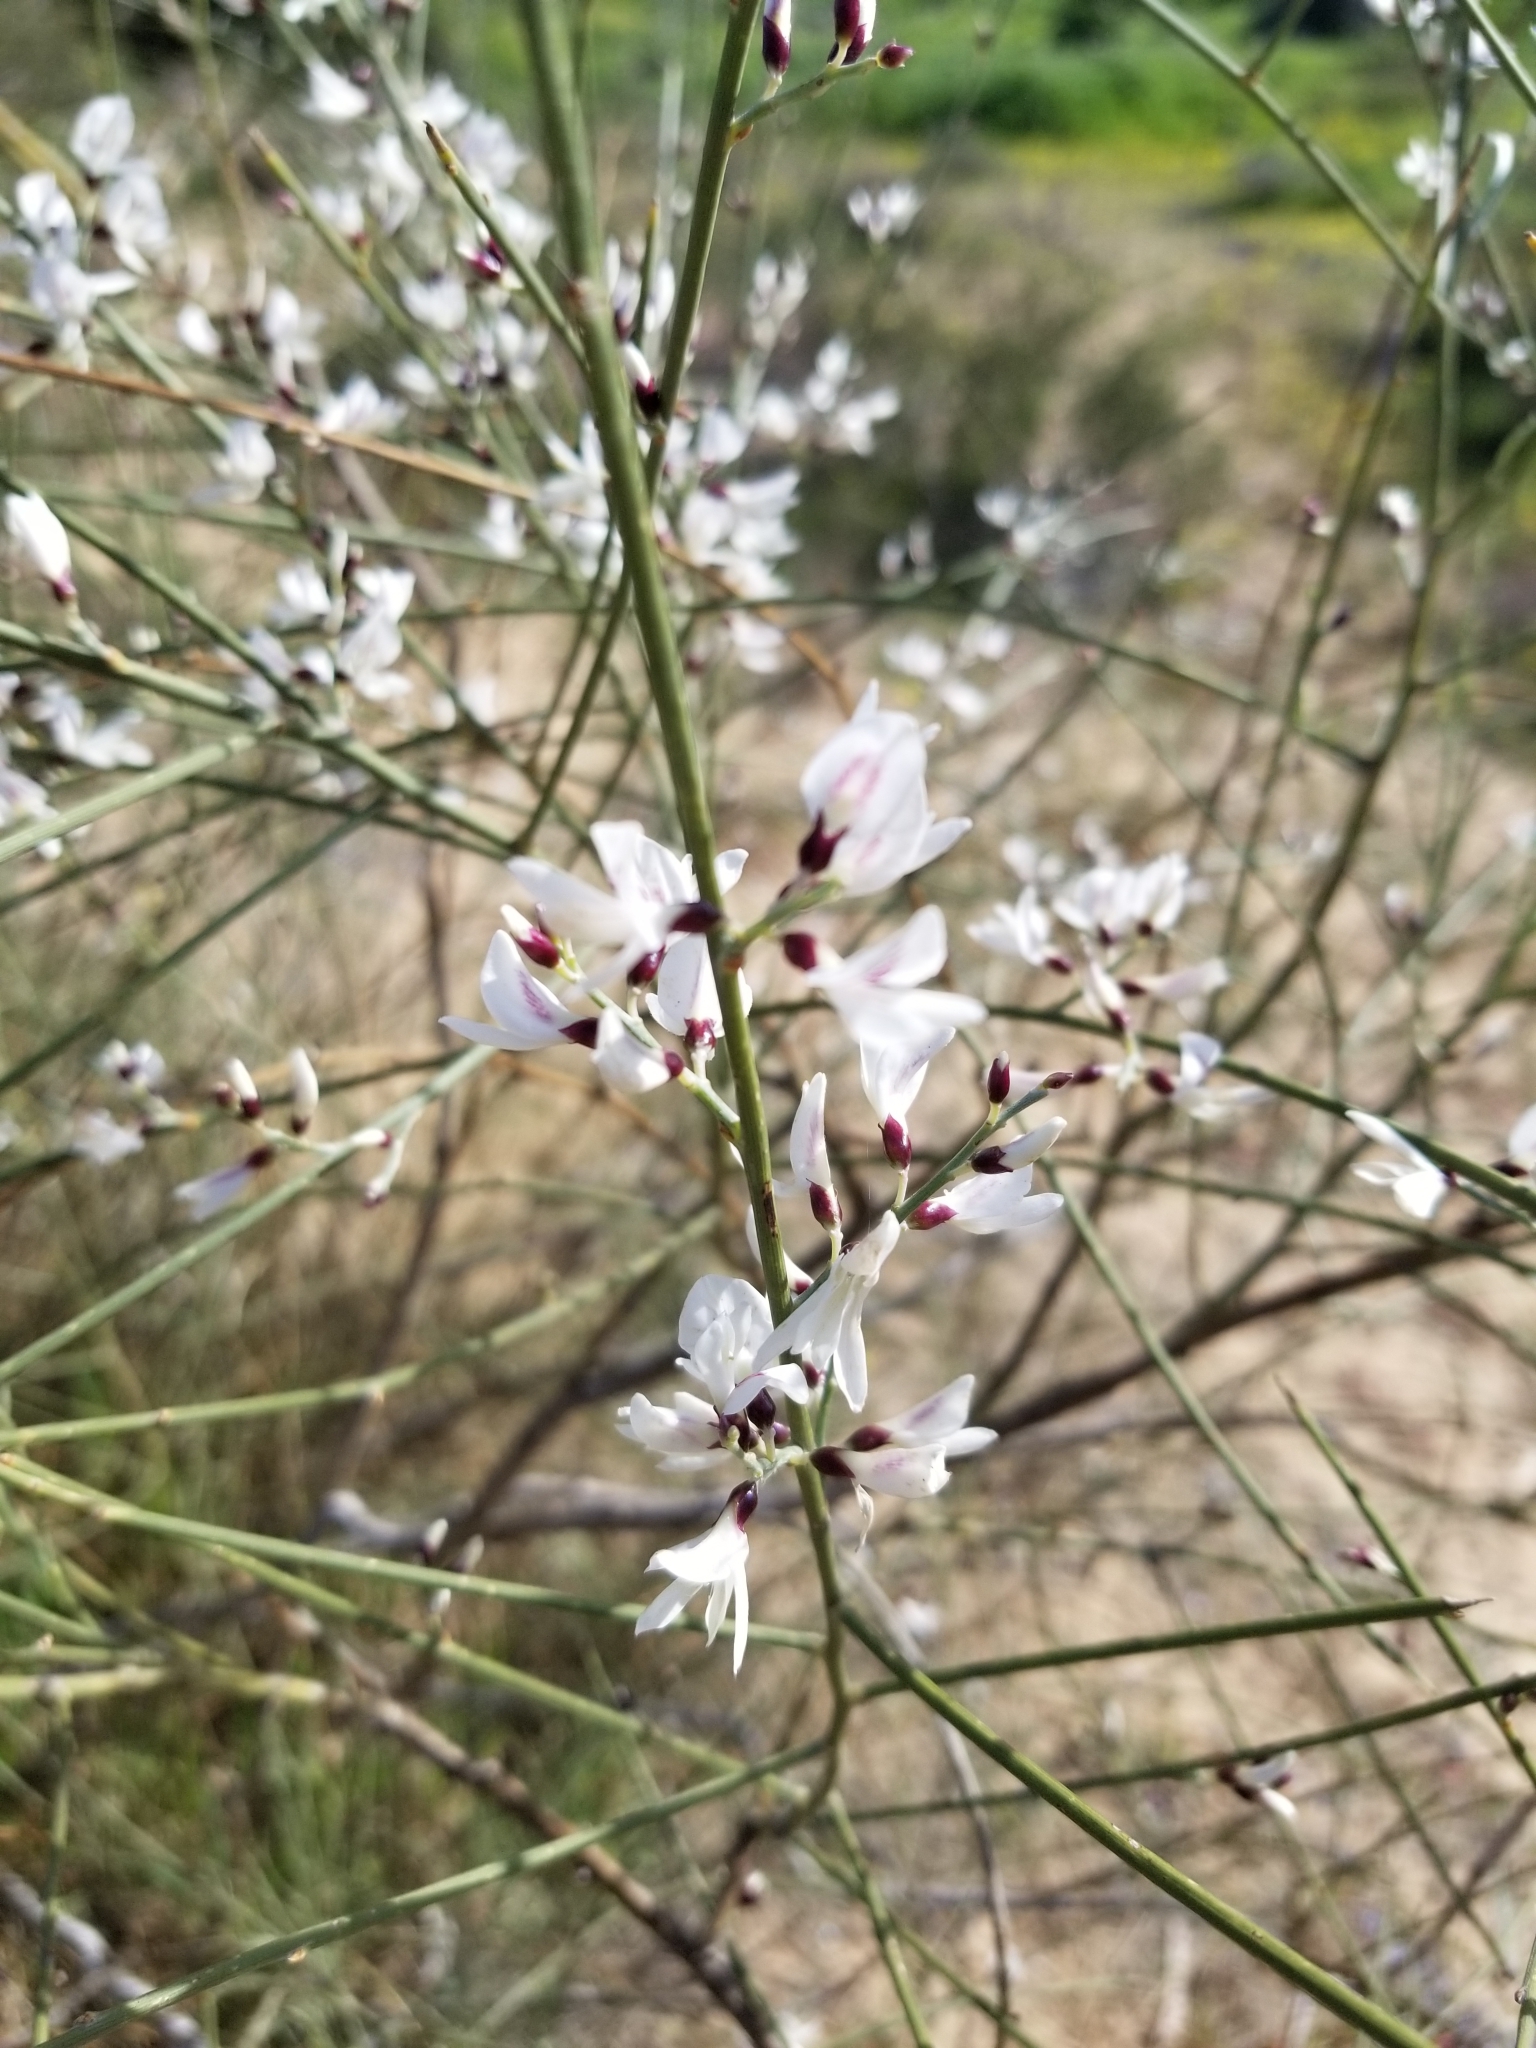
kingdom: Plantae
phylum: Tracheophyta
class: Magnoliopsida
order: Fabales
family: Fabaceae
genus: Retama
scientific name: Retama raetam
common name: Retem
